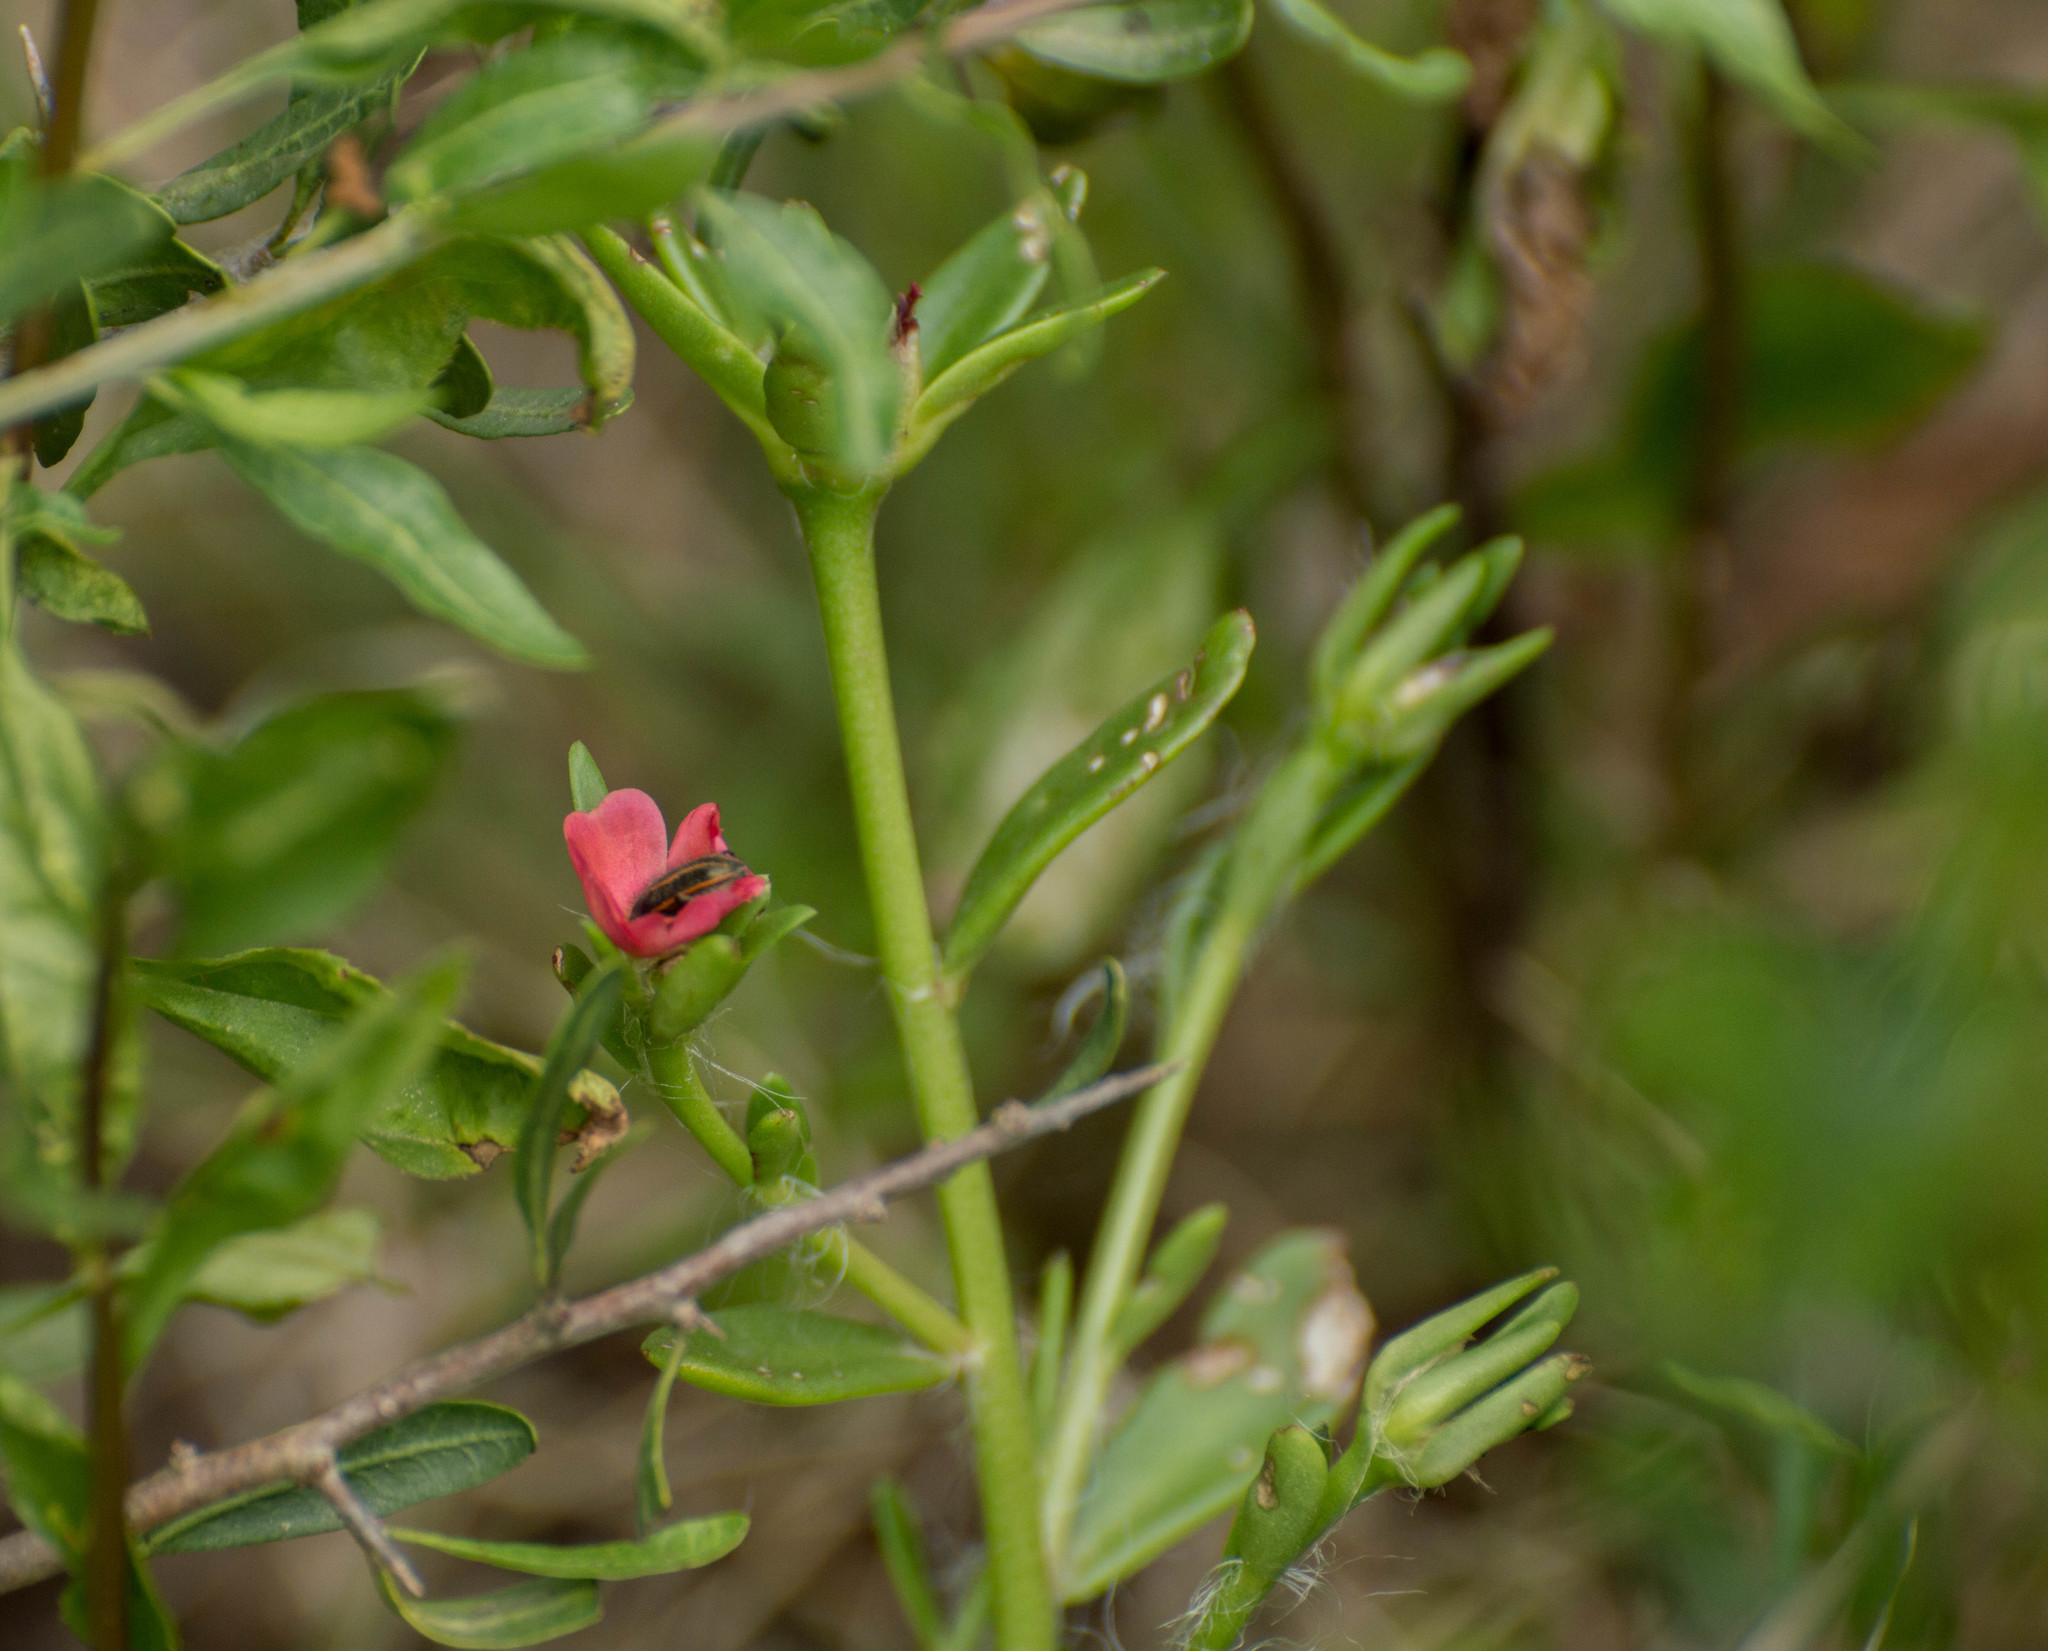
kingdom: Plantae
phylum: Tracheophyta
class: Magnoliopsida
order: Caryophyllales
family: Portulacaceae
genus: Portulaca
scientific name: Portulaca cryptopetala
